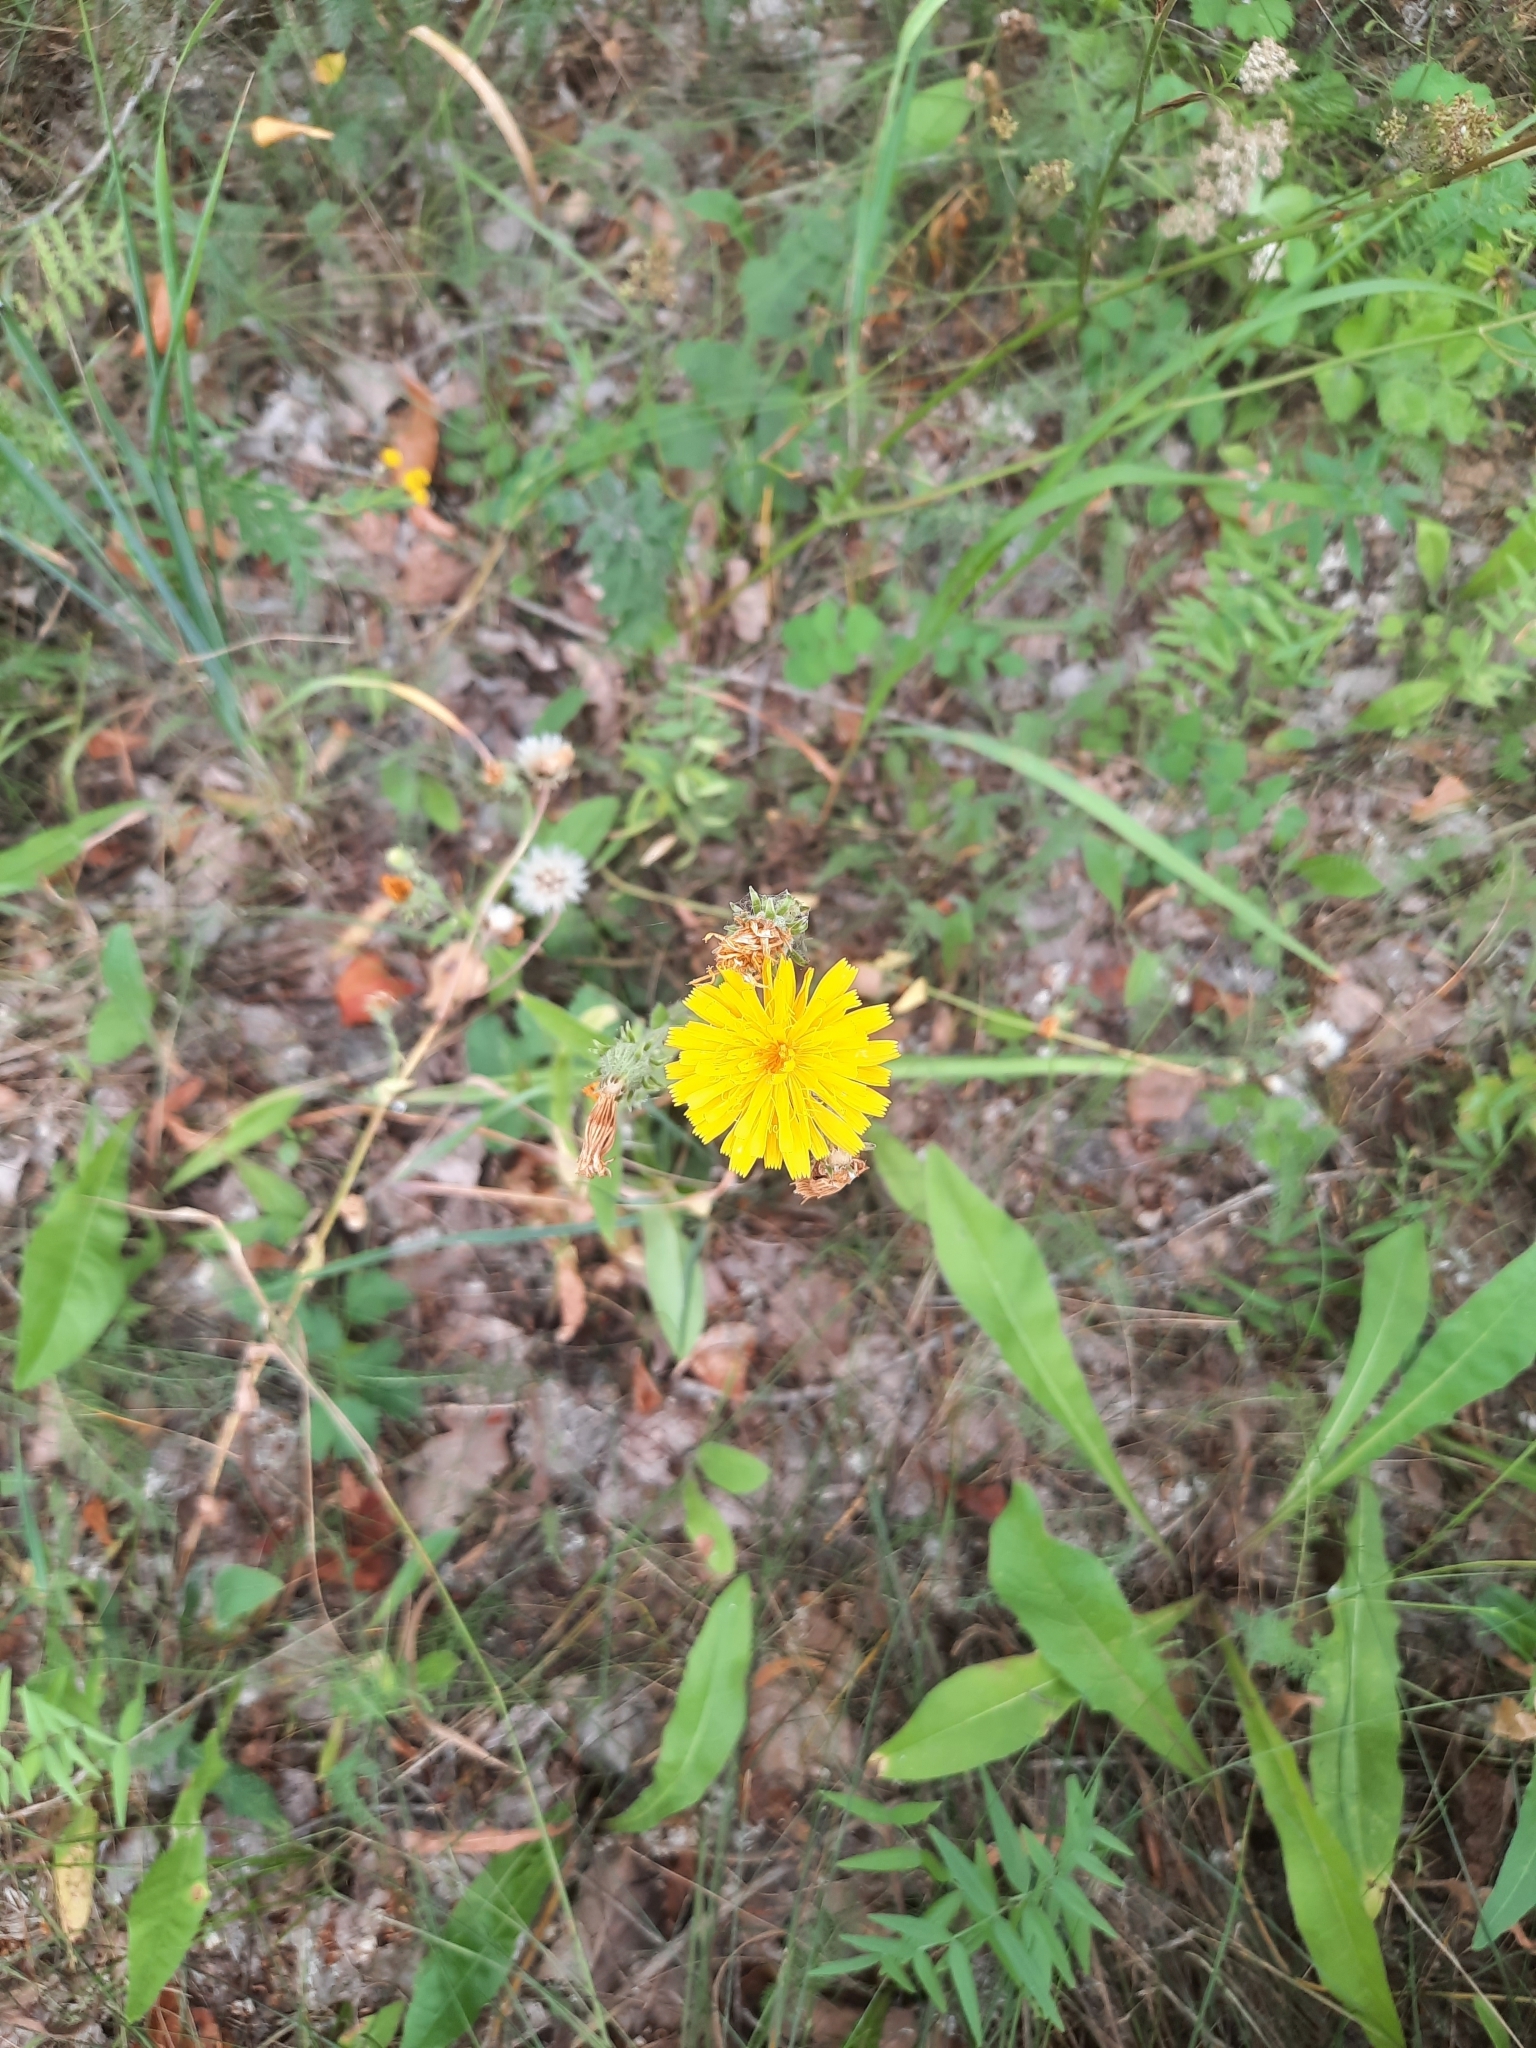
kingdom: Plantae
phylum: Tracheophyta
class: Magnoliopsida
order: Asterales
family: Asteraceae
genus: Picris
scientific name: Picris hieracioides
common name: Hawkweed oxtongue
